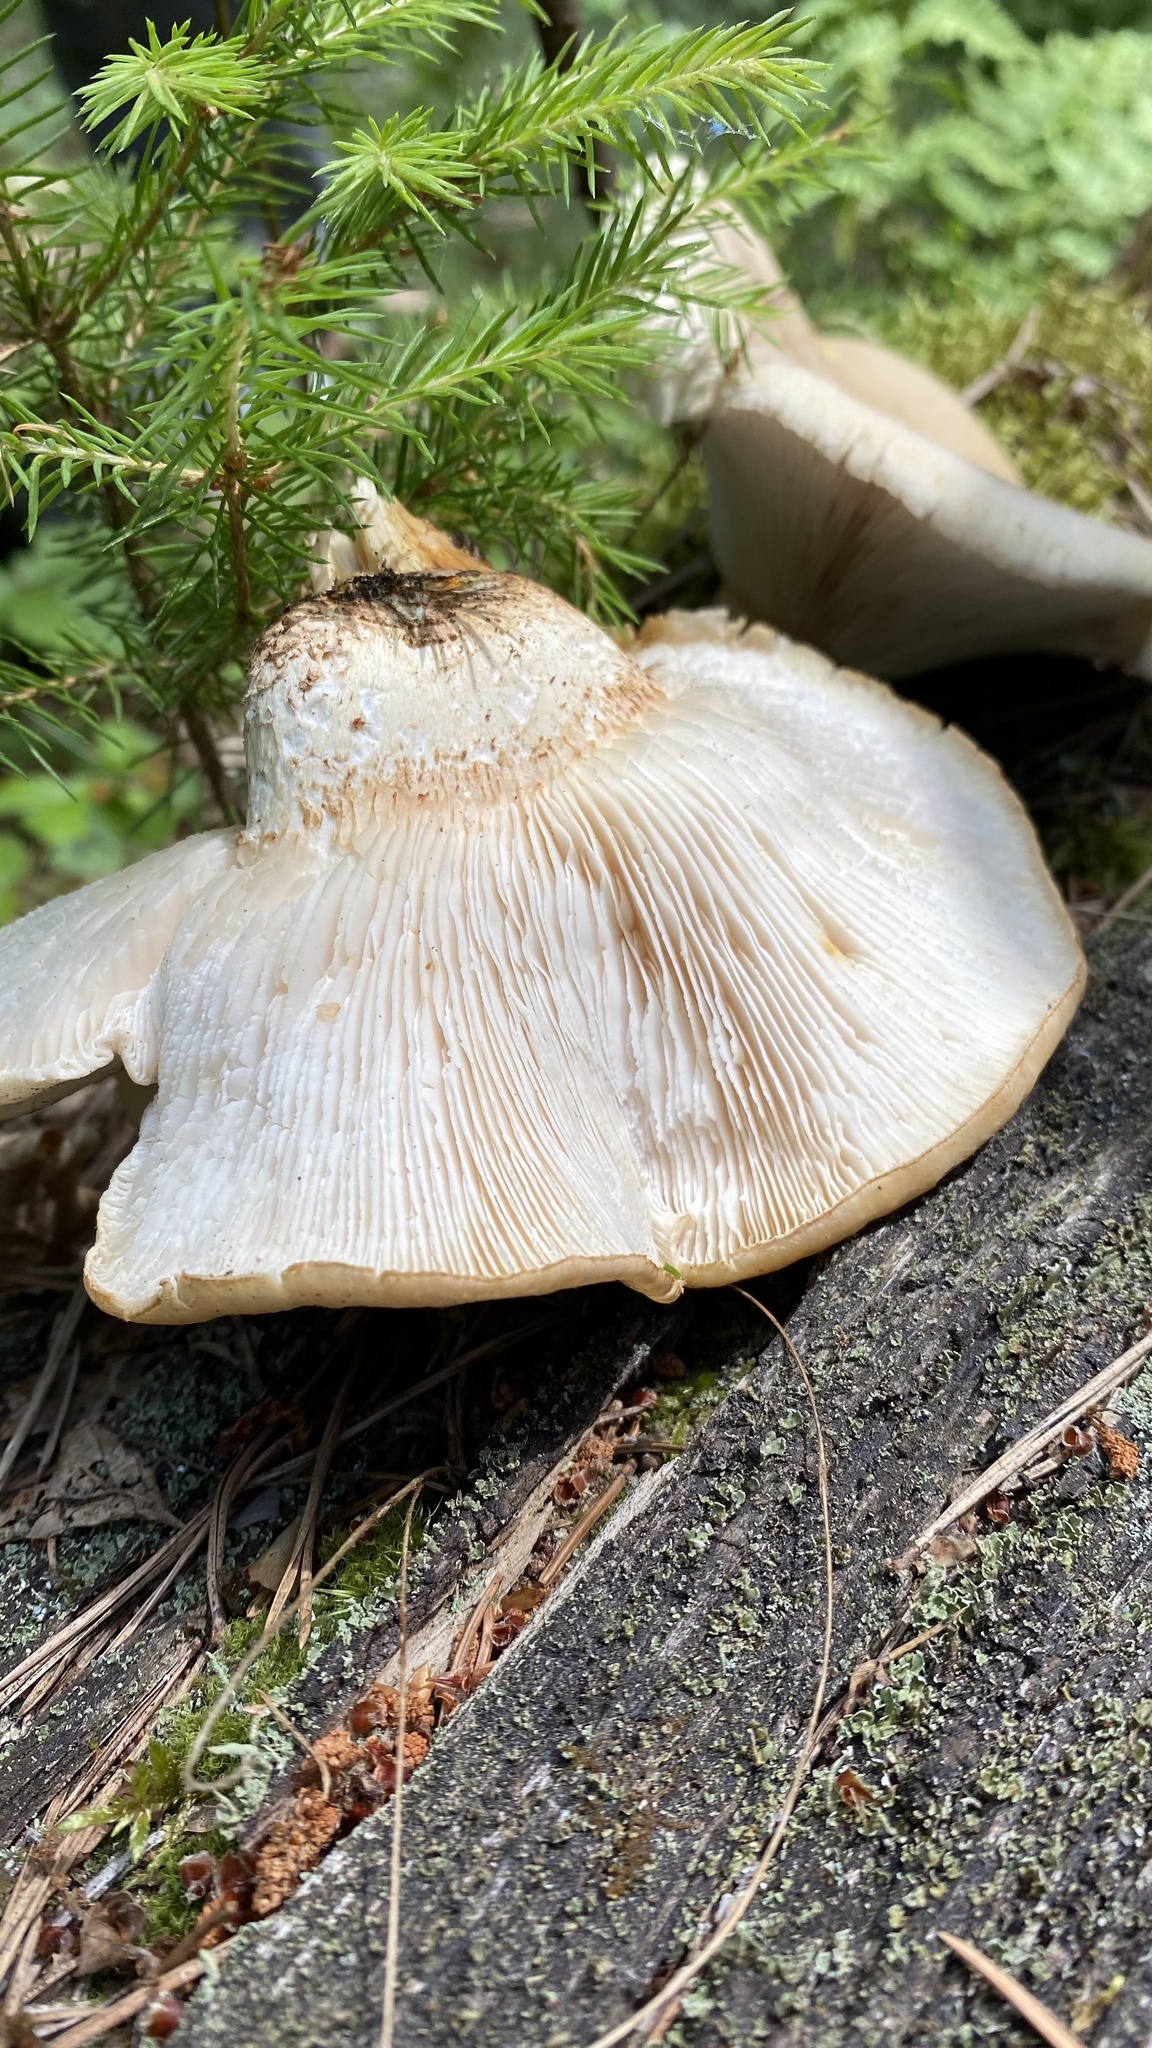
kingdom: Fungi
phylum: Basidiomycota
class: Agaricomycetes
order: Gloeophyllales
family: Gloeophyllaceae
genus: Neolentinus
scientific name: Neolentinus lepideus
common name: Scaly sawgill
